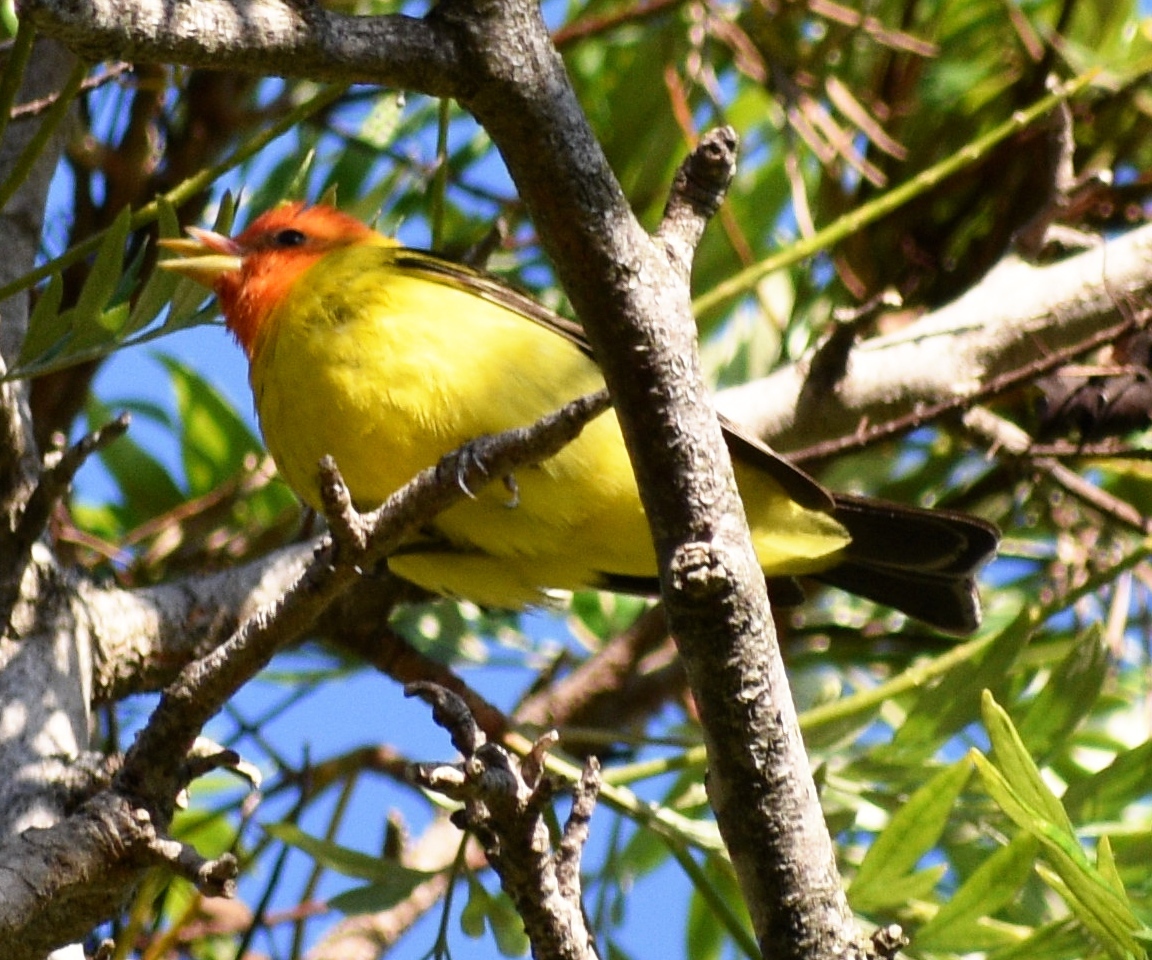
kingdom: Animalia
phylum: Chordata
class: Aves
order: Passeriformes
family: Cardinalidae
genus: Piranga
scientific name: Piranga ludoviciana
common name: Western tanager
